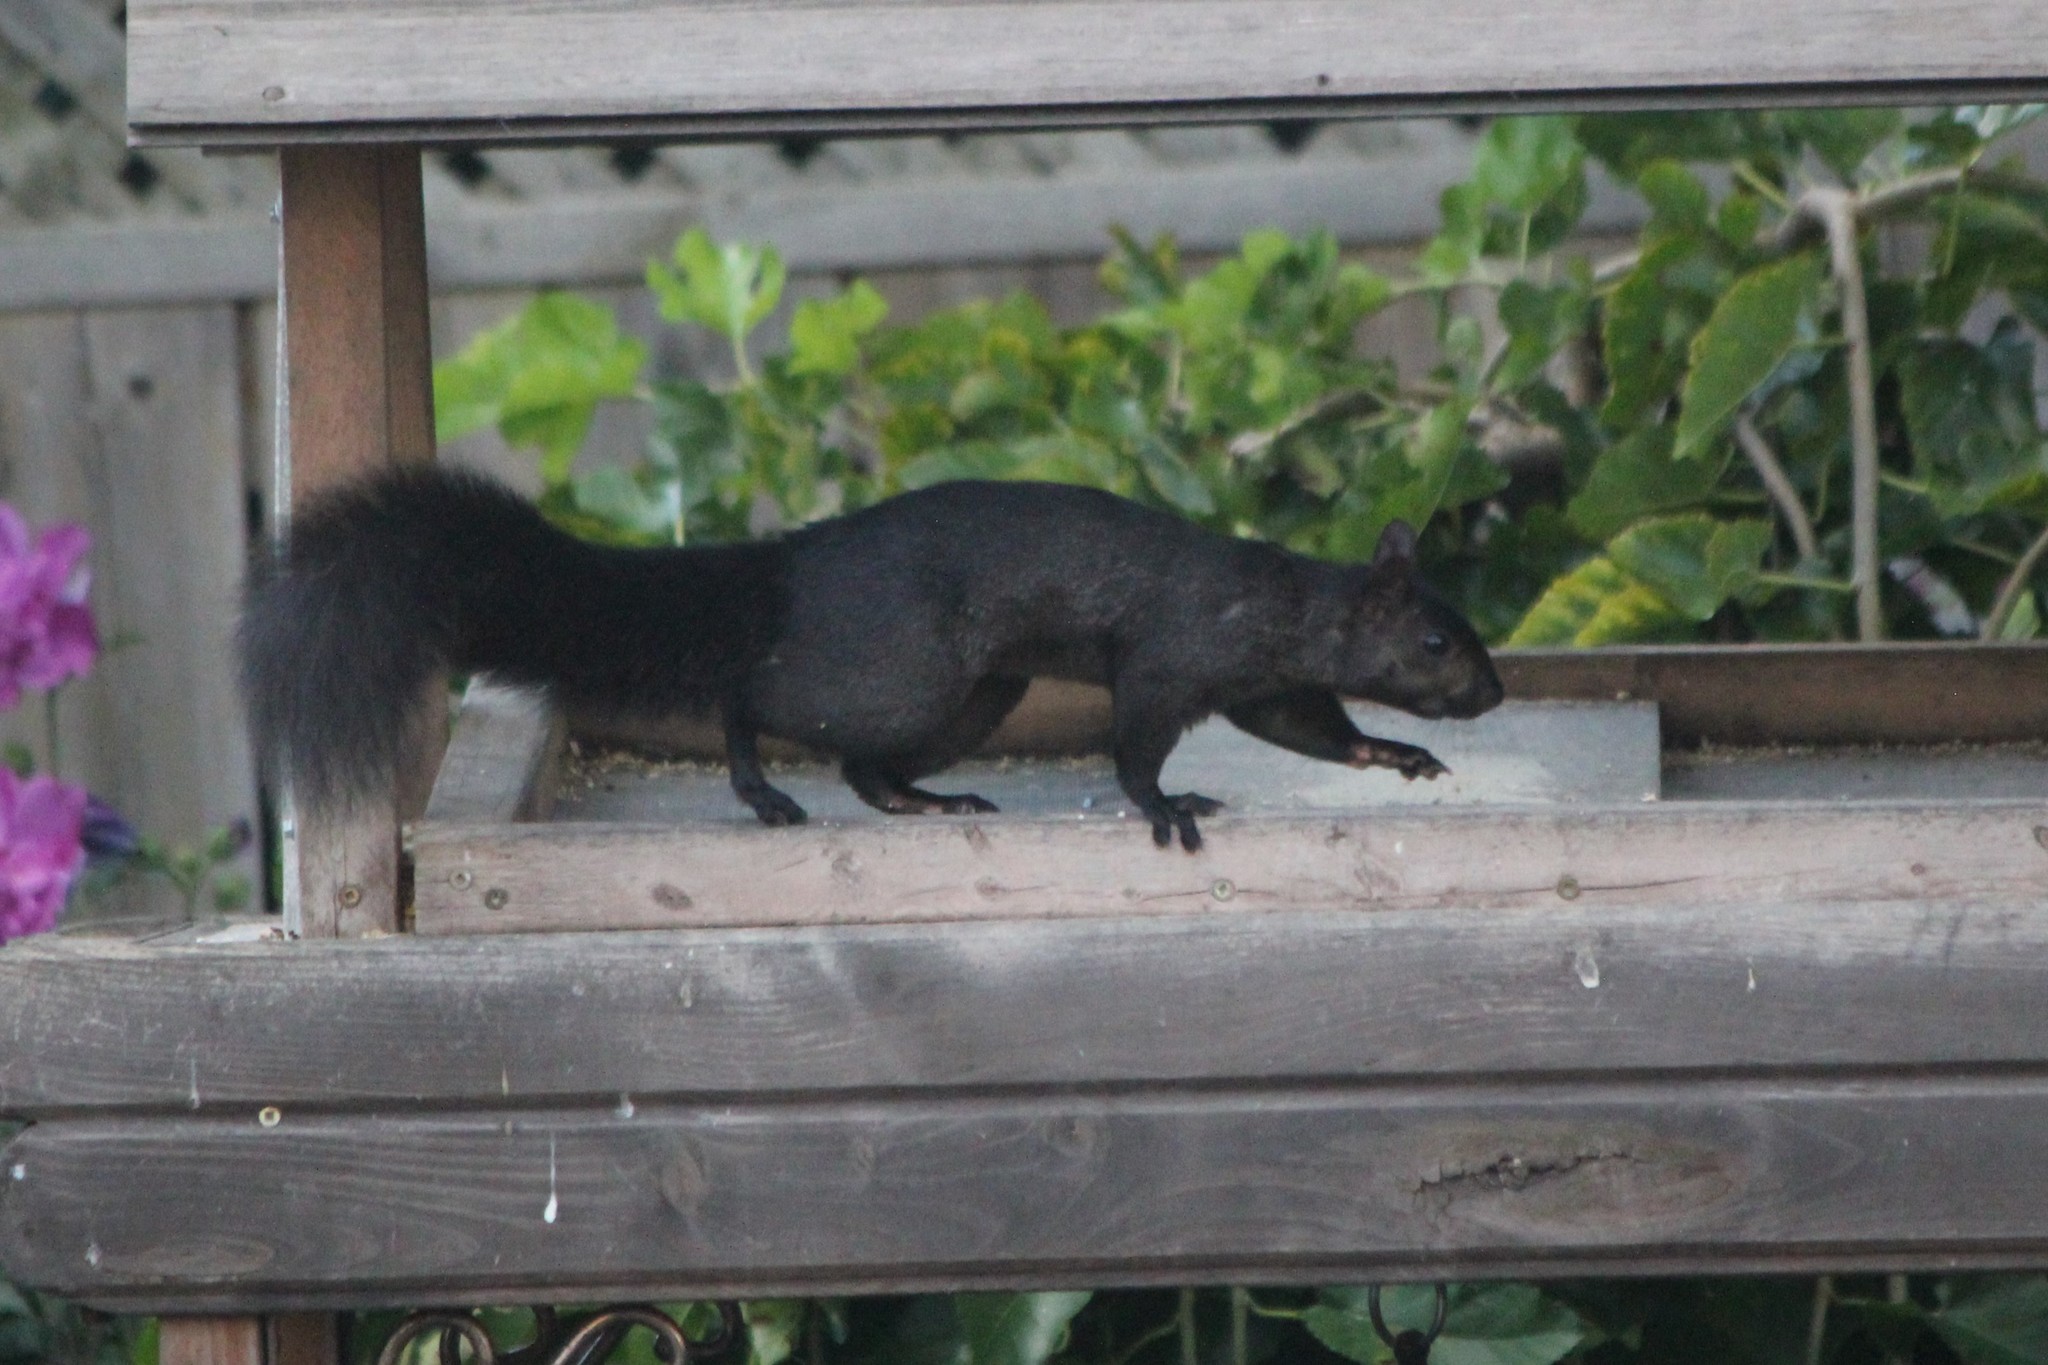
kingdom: Animalia
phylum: Chordata
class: Mammalia
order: Rodentia
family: Sciuridae
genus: Sciurus
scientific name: Sciurus carolinensis
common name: Eastern gray squirrel
